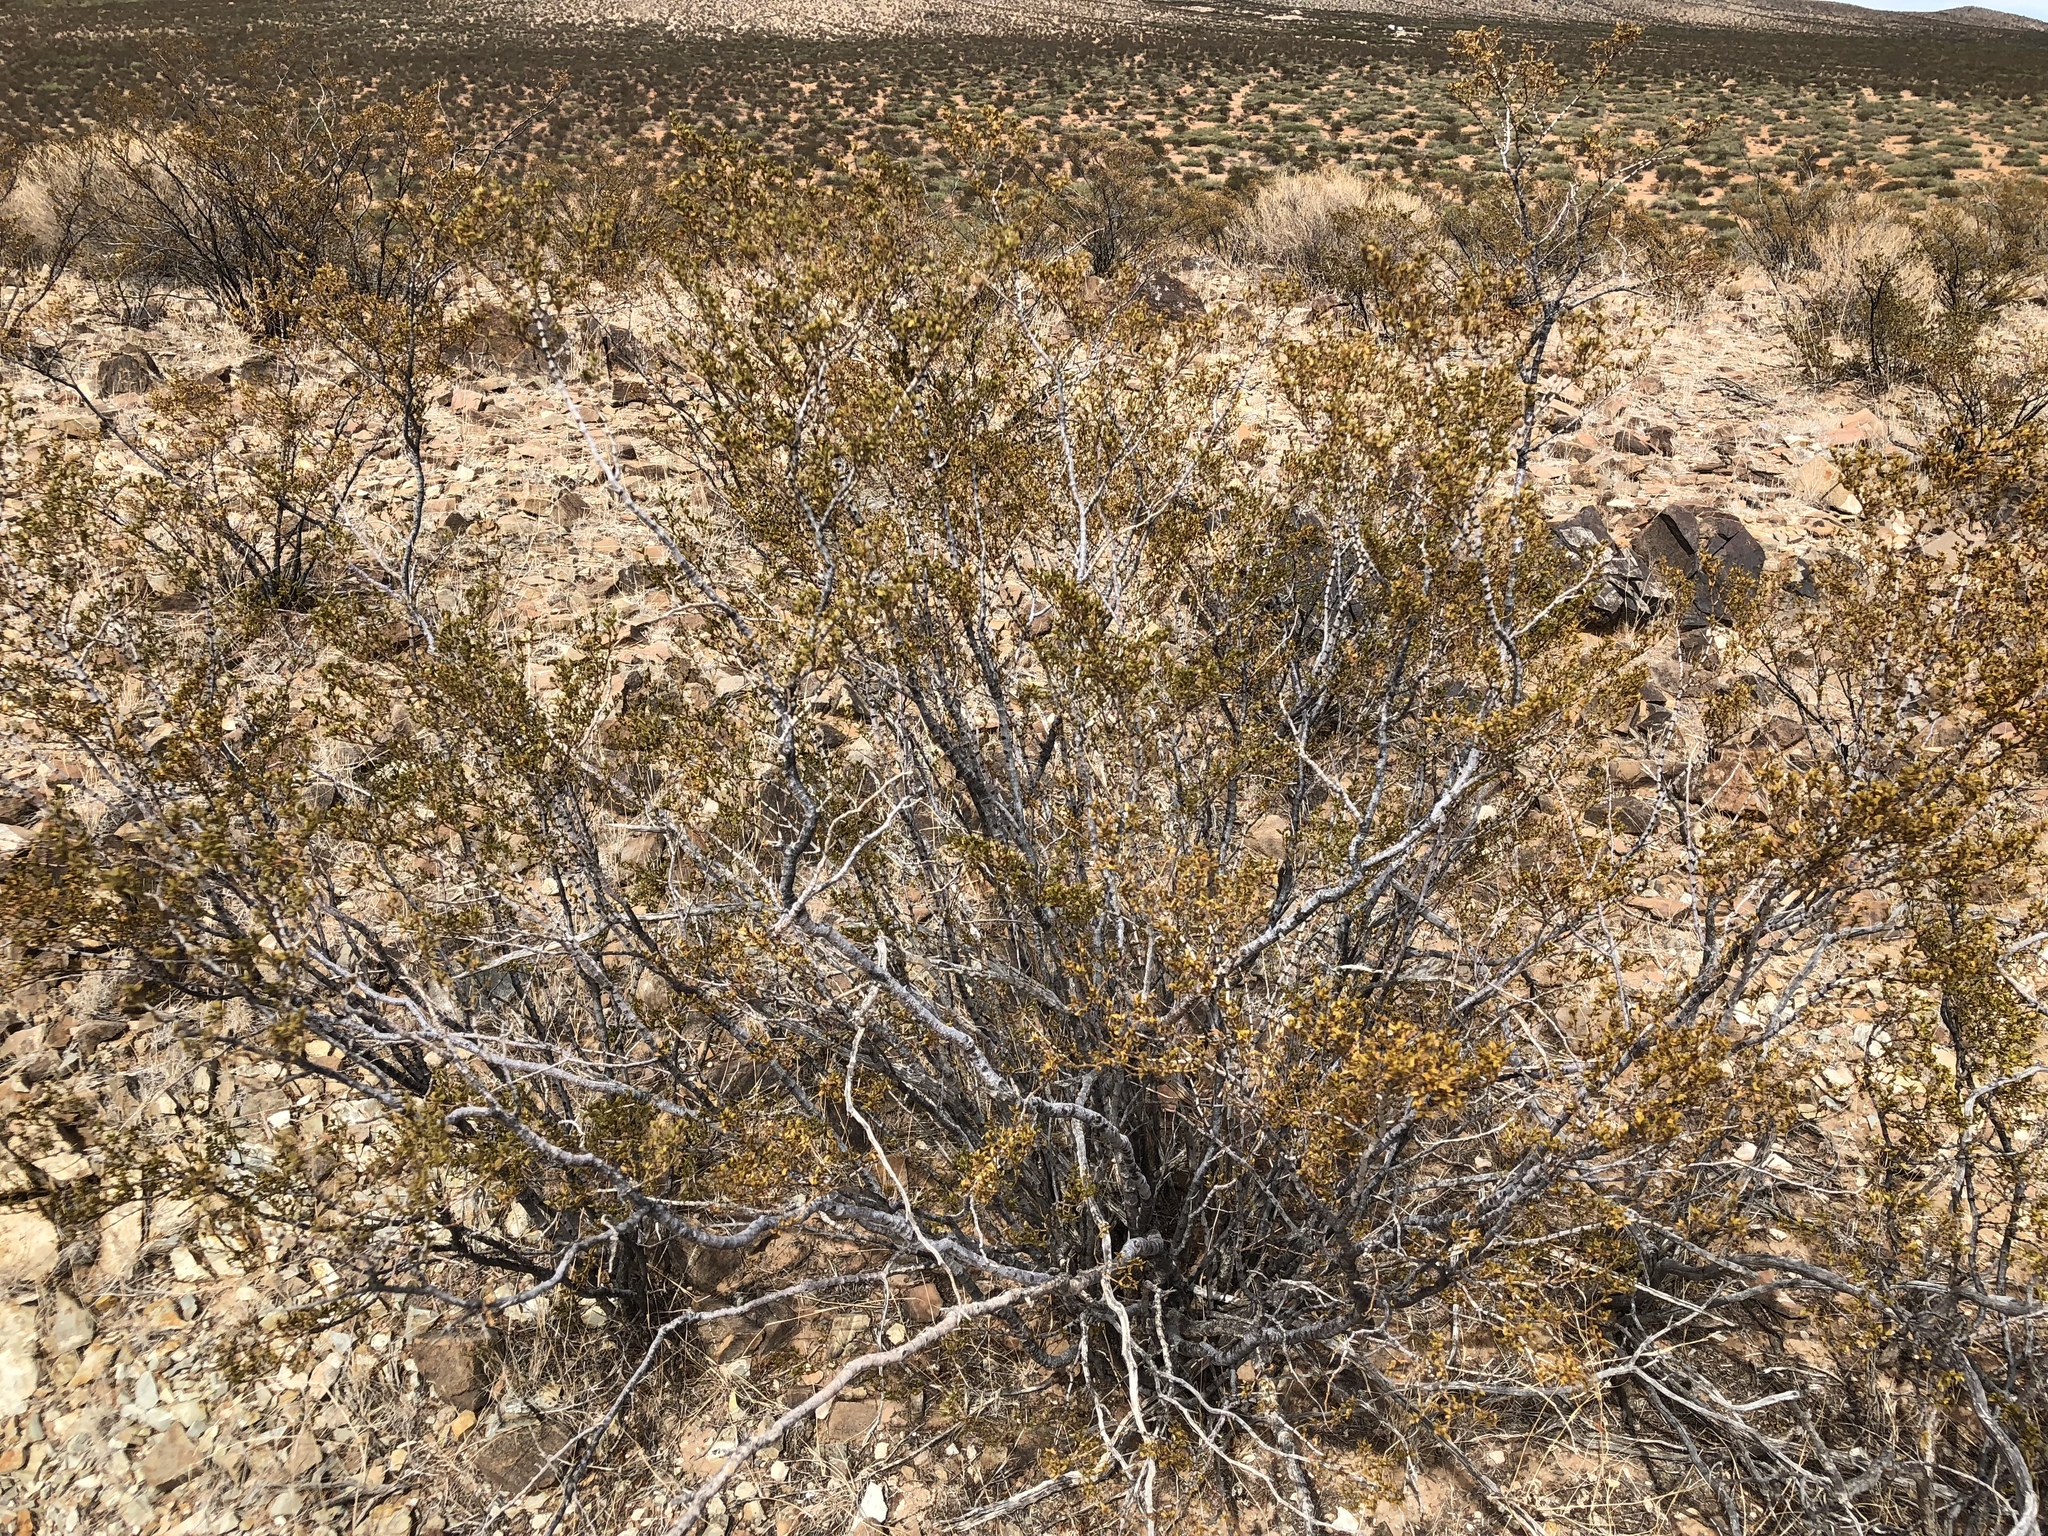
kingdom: Plantae
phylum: Tracheophyta
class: Magnoliopsida
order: Zygophyllales
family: Zygophyllaceae
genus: Larrea
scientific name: Larrea tridentata
